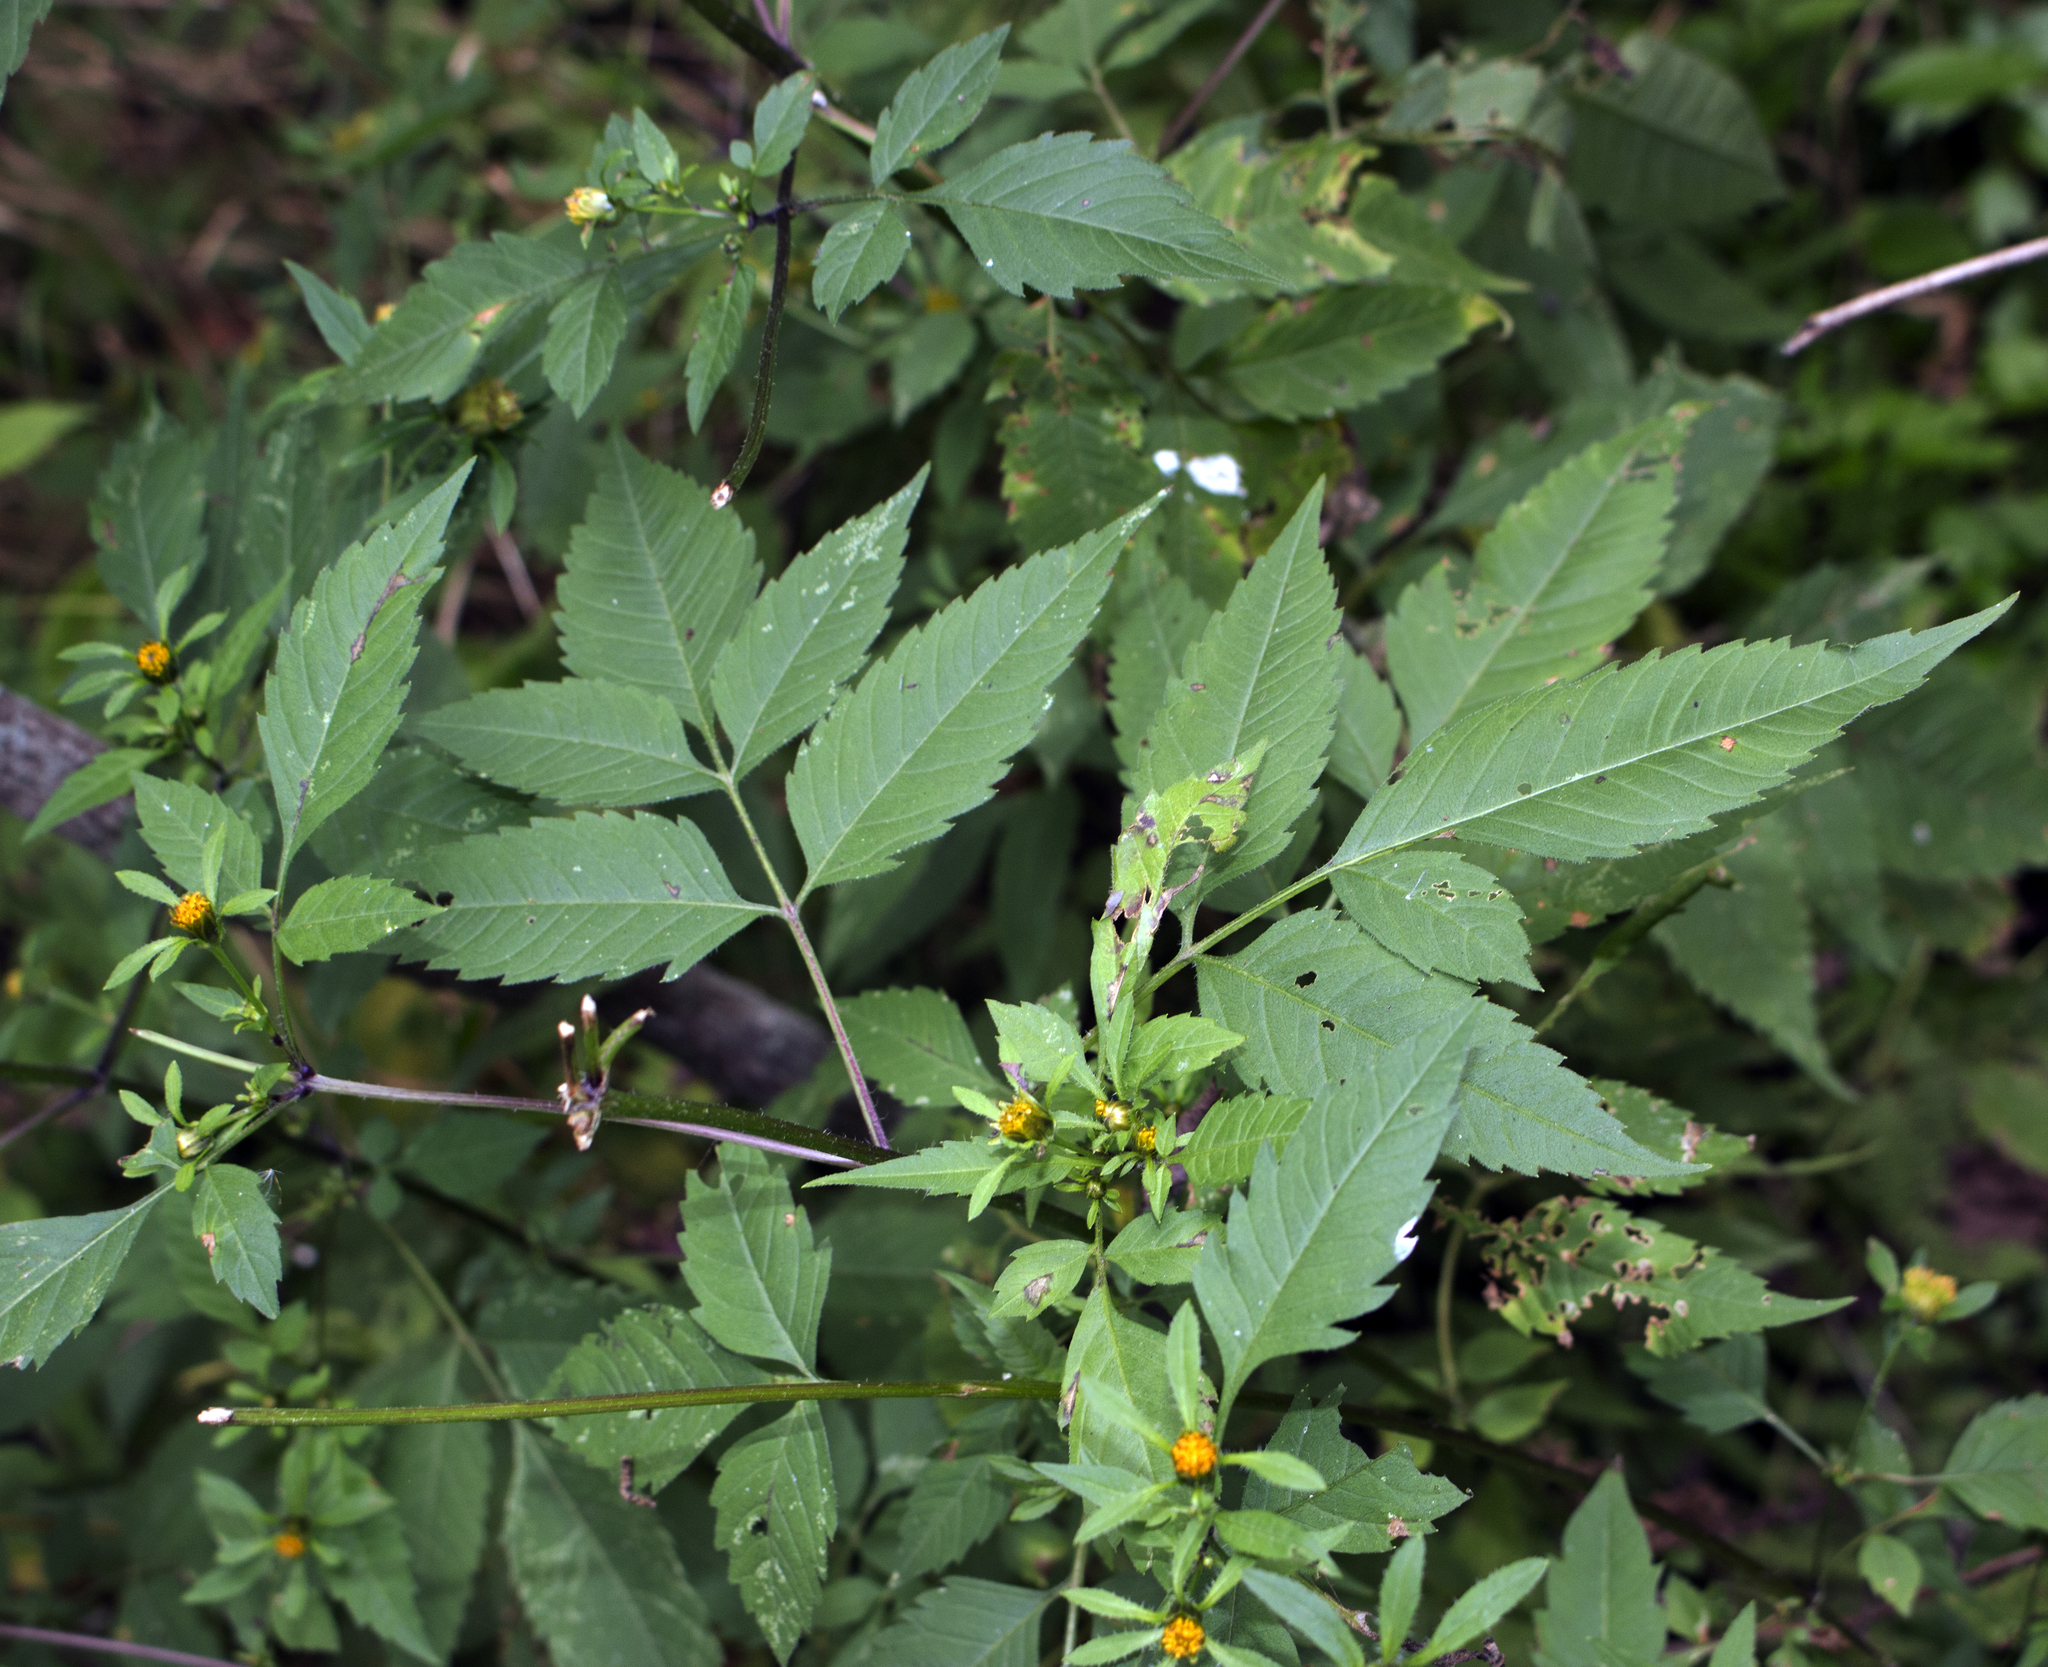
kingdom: Plantae
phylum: Tracheophyta
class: Magnoliopsida
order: Asterales
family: Asteraceae
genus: Bidens
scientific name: Bidens frondosa
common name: Beggarticks
